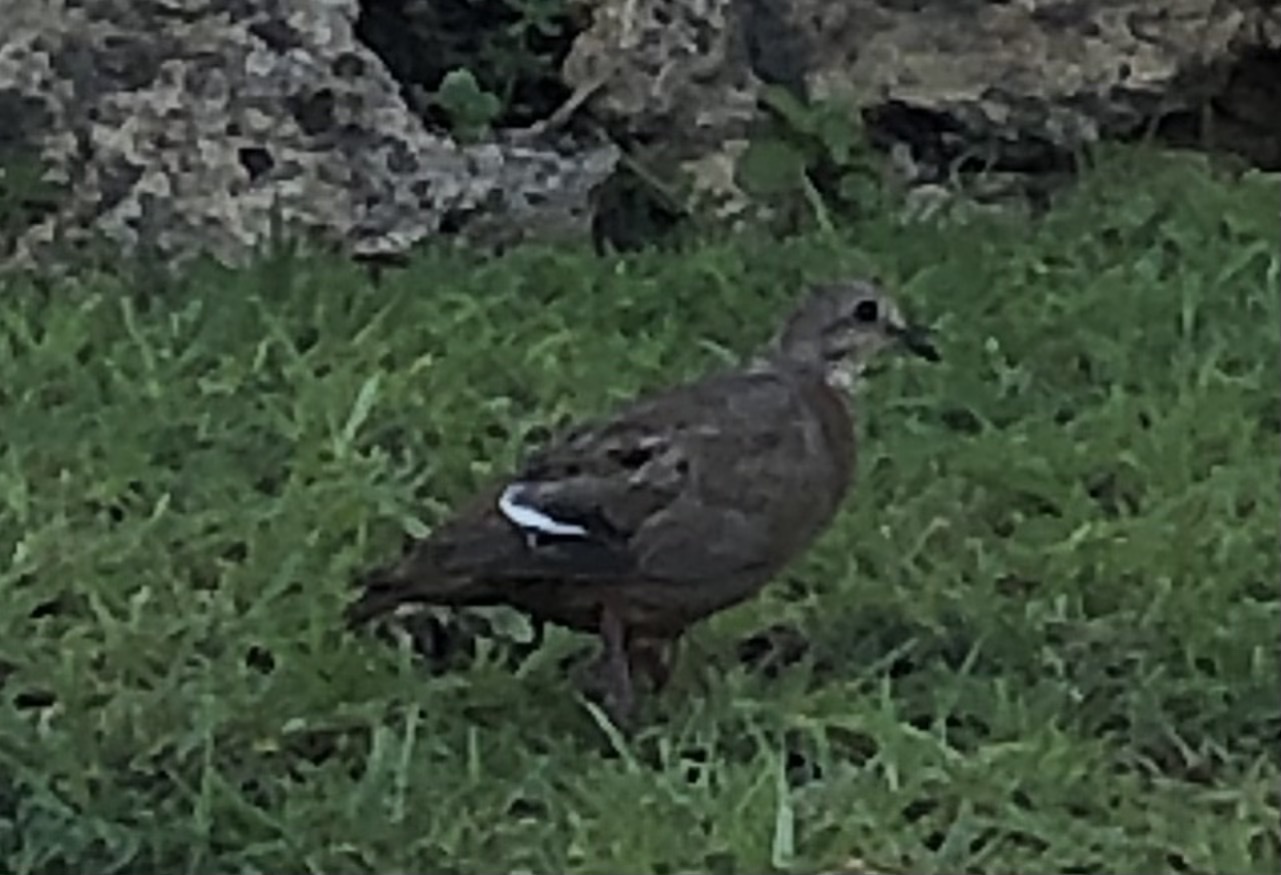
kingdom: Animalia
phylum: Chordata
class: Aves
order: Columbiformes
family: Columbidae
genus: Zenaida
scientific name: Zenaida aurita
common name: Zenaida dove
